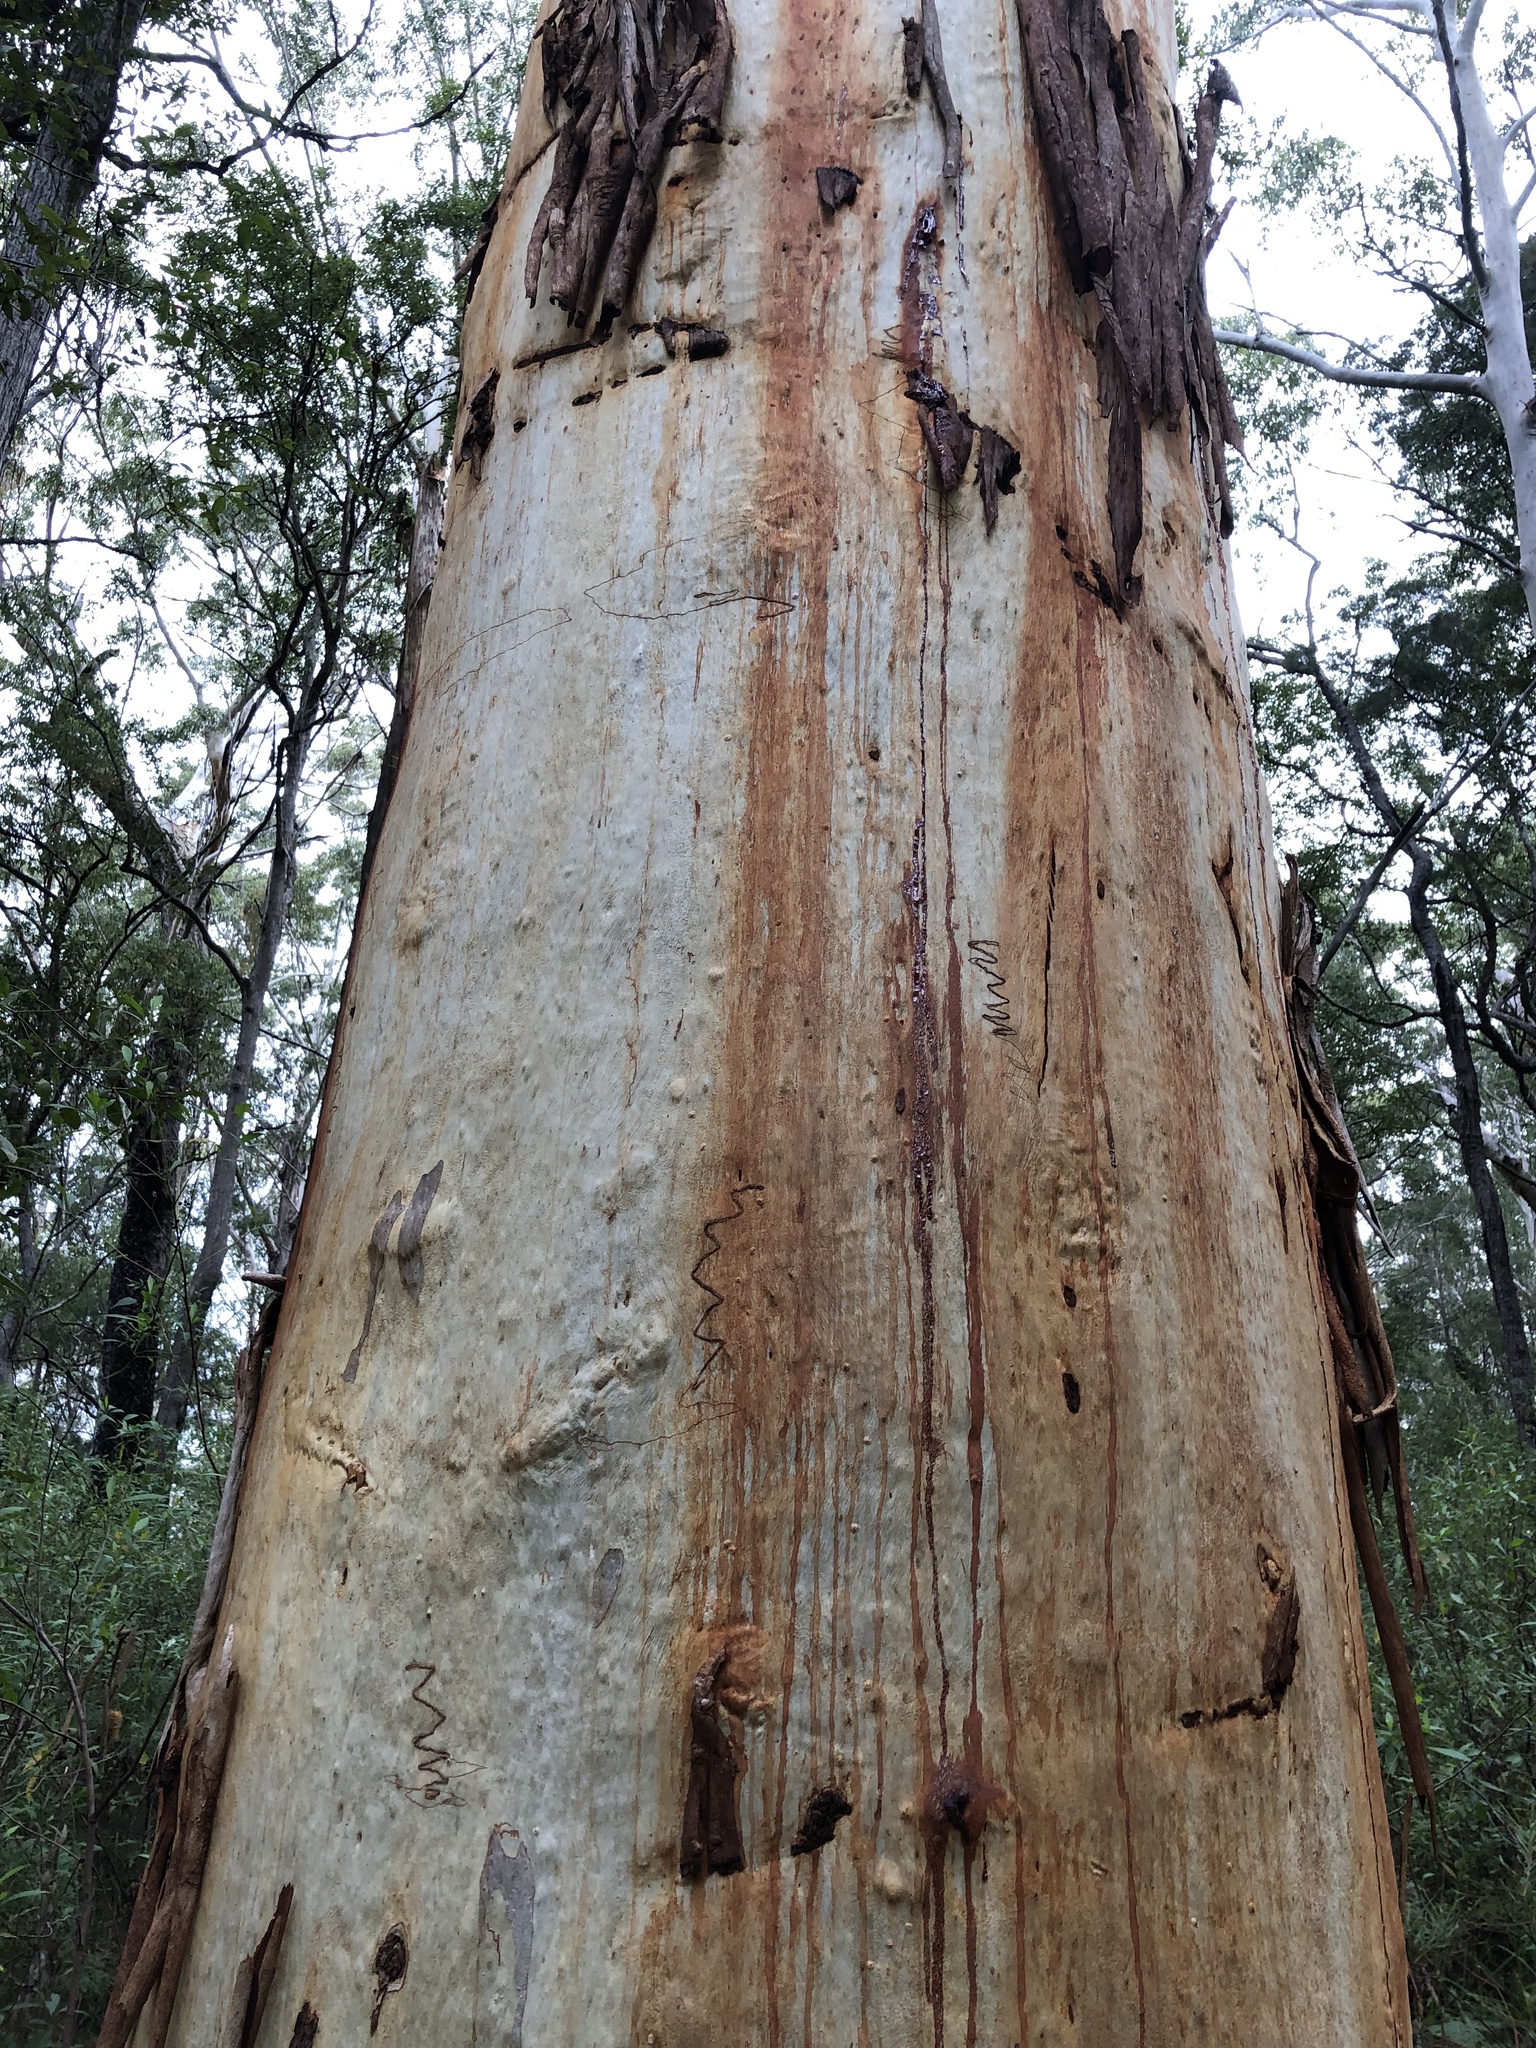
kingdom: Plantae
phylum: Tracheophyta
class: Magnoliopsida
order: Myrtales
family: Myrtaceae
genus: Eucalyptus
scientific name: Eucalyptus racemosa
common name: Scribbly gum
